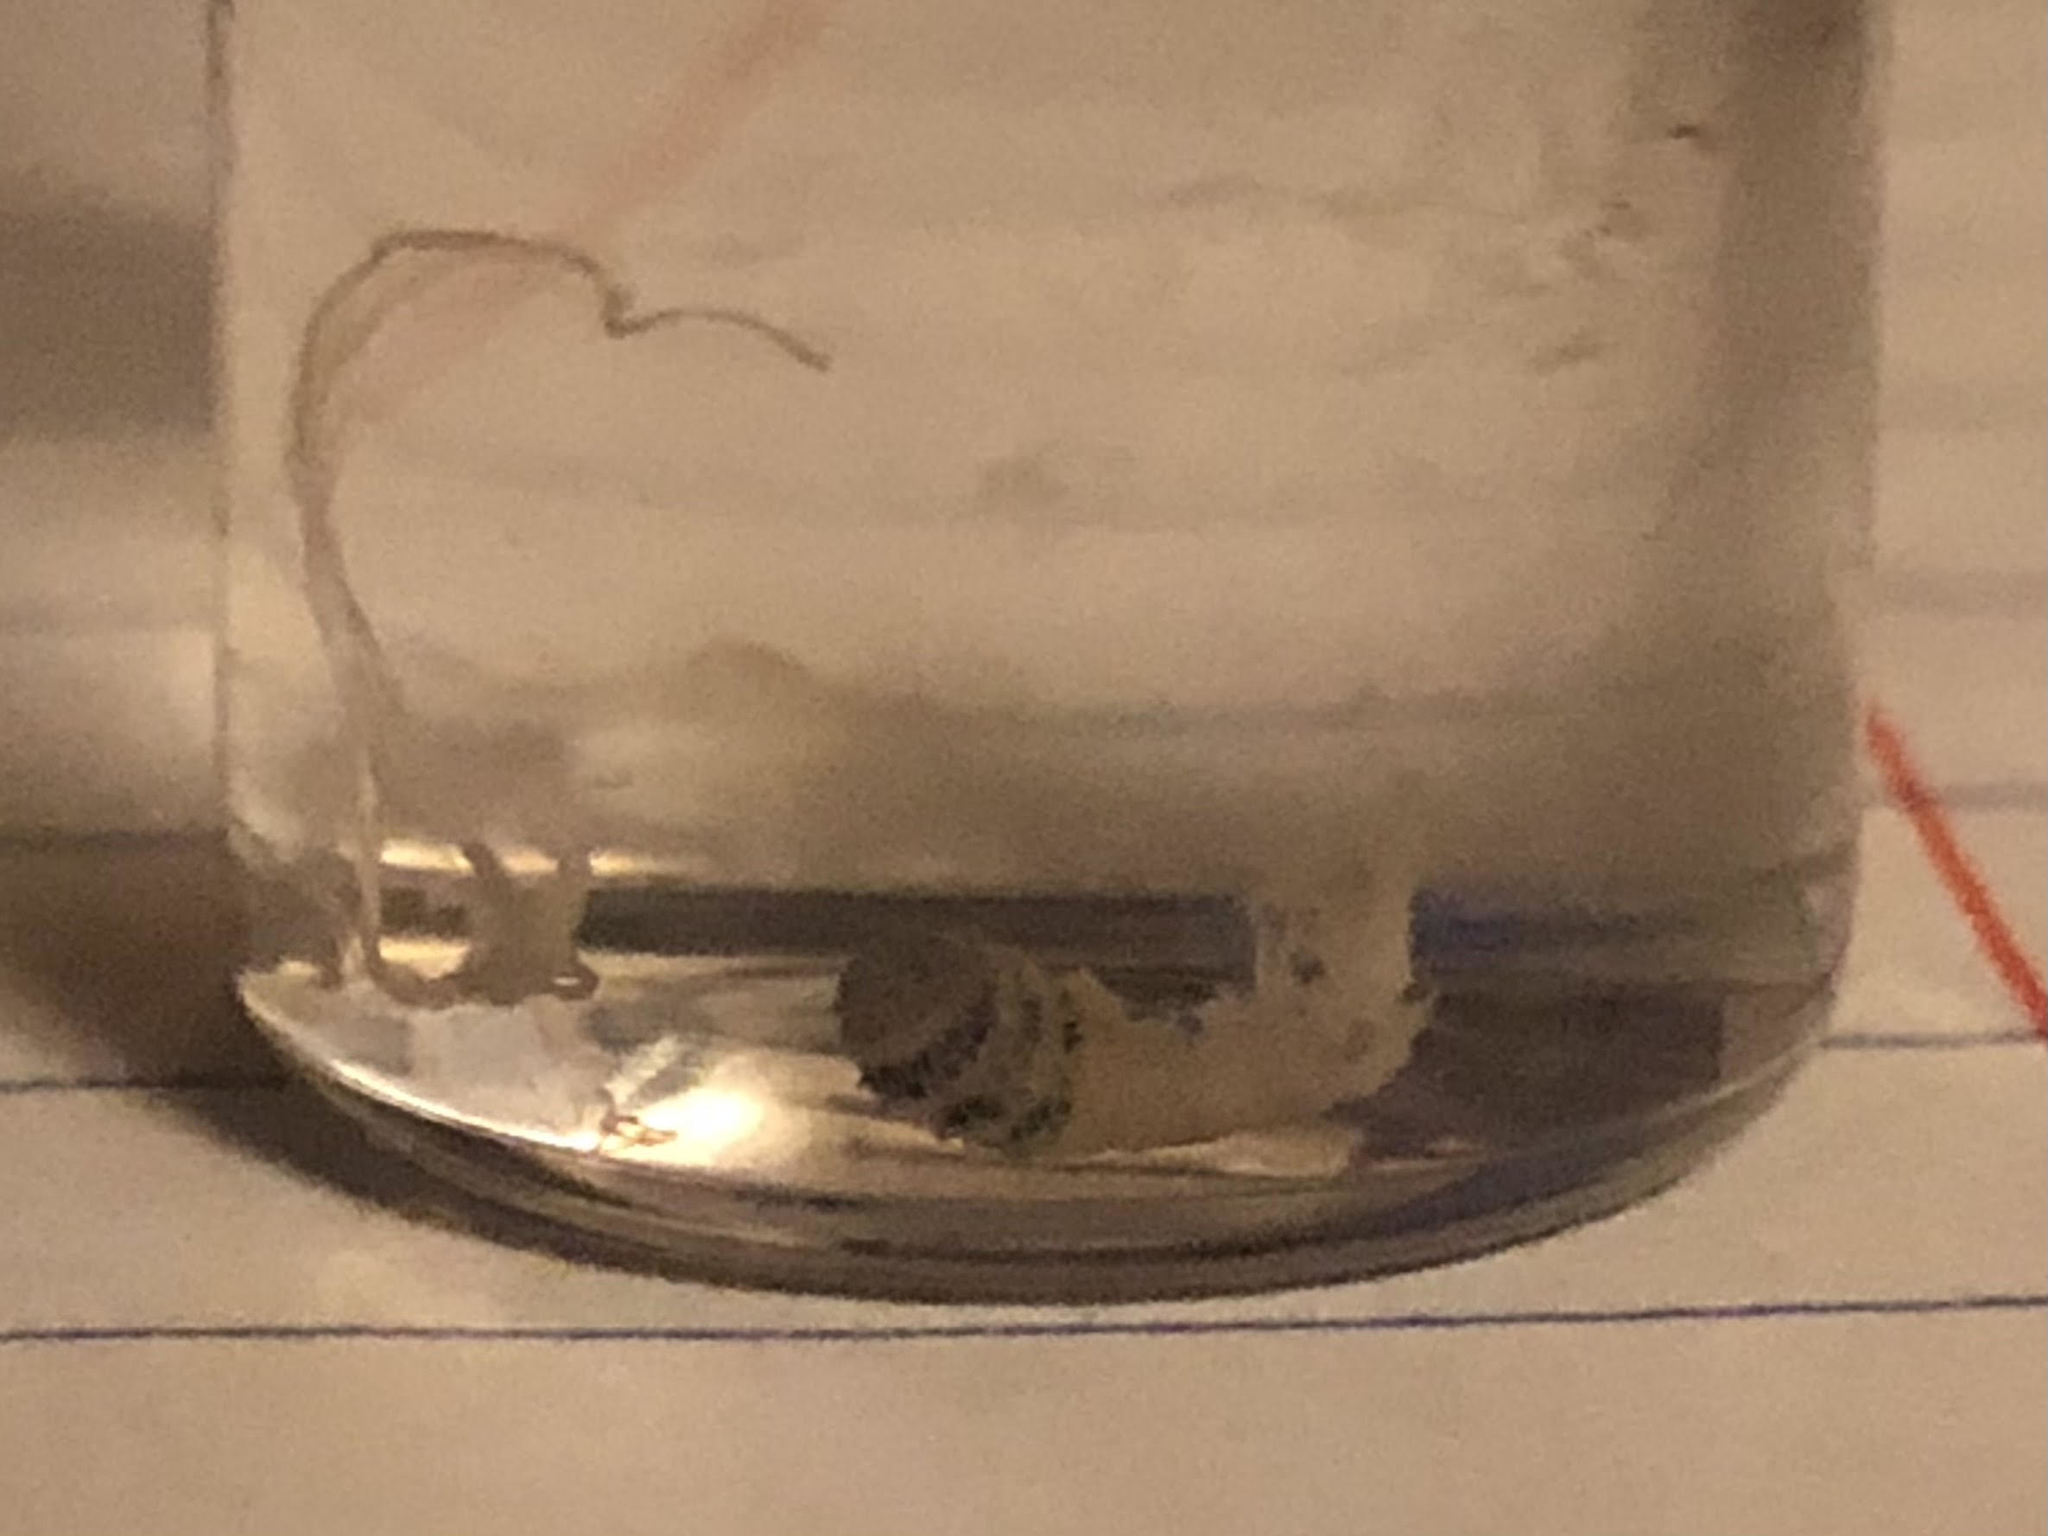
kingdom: Animalia
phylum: Arthropoda
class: Insecta
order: Diptera
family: Oestridae
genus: Dermatobia
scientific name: Dermatobia hominis
